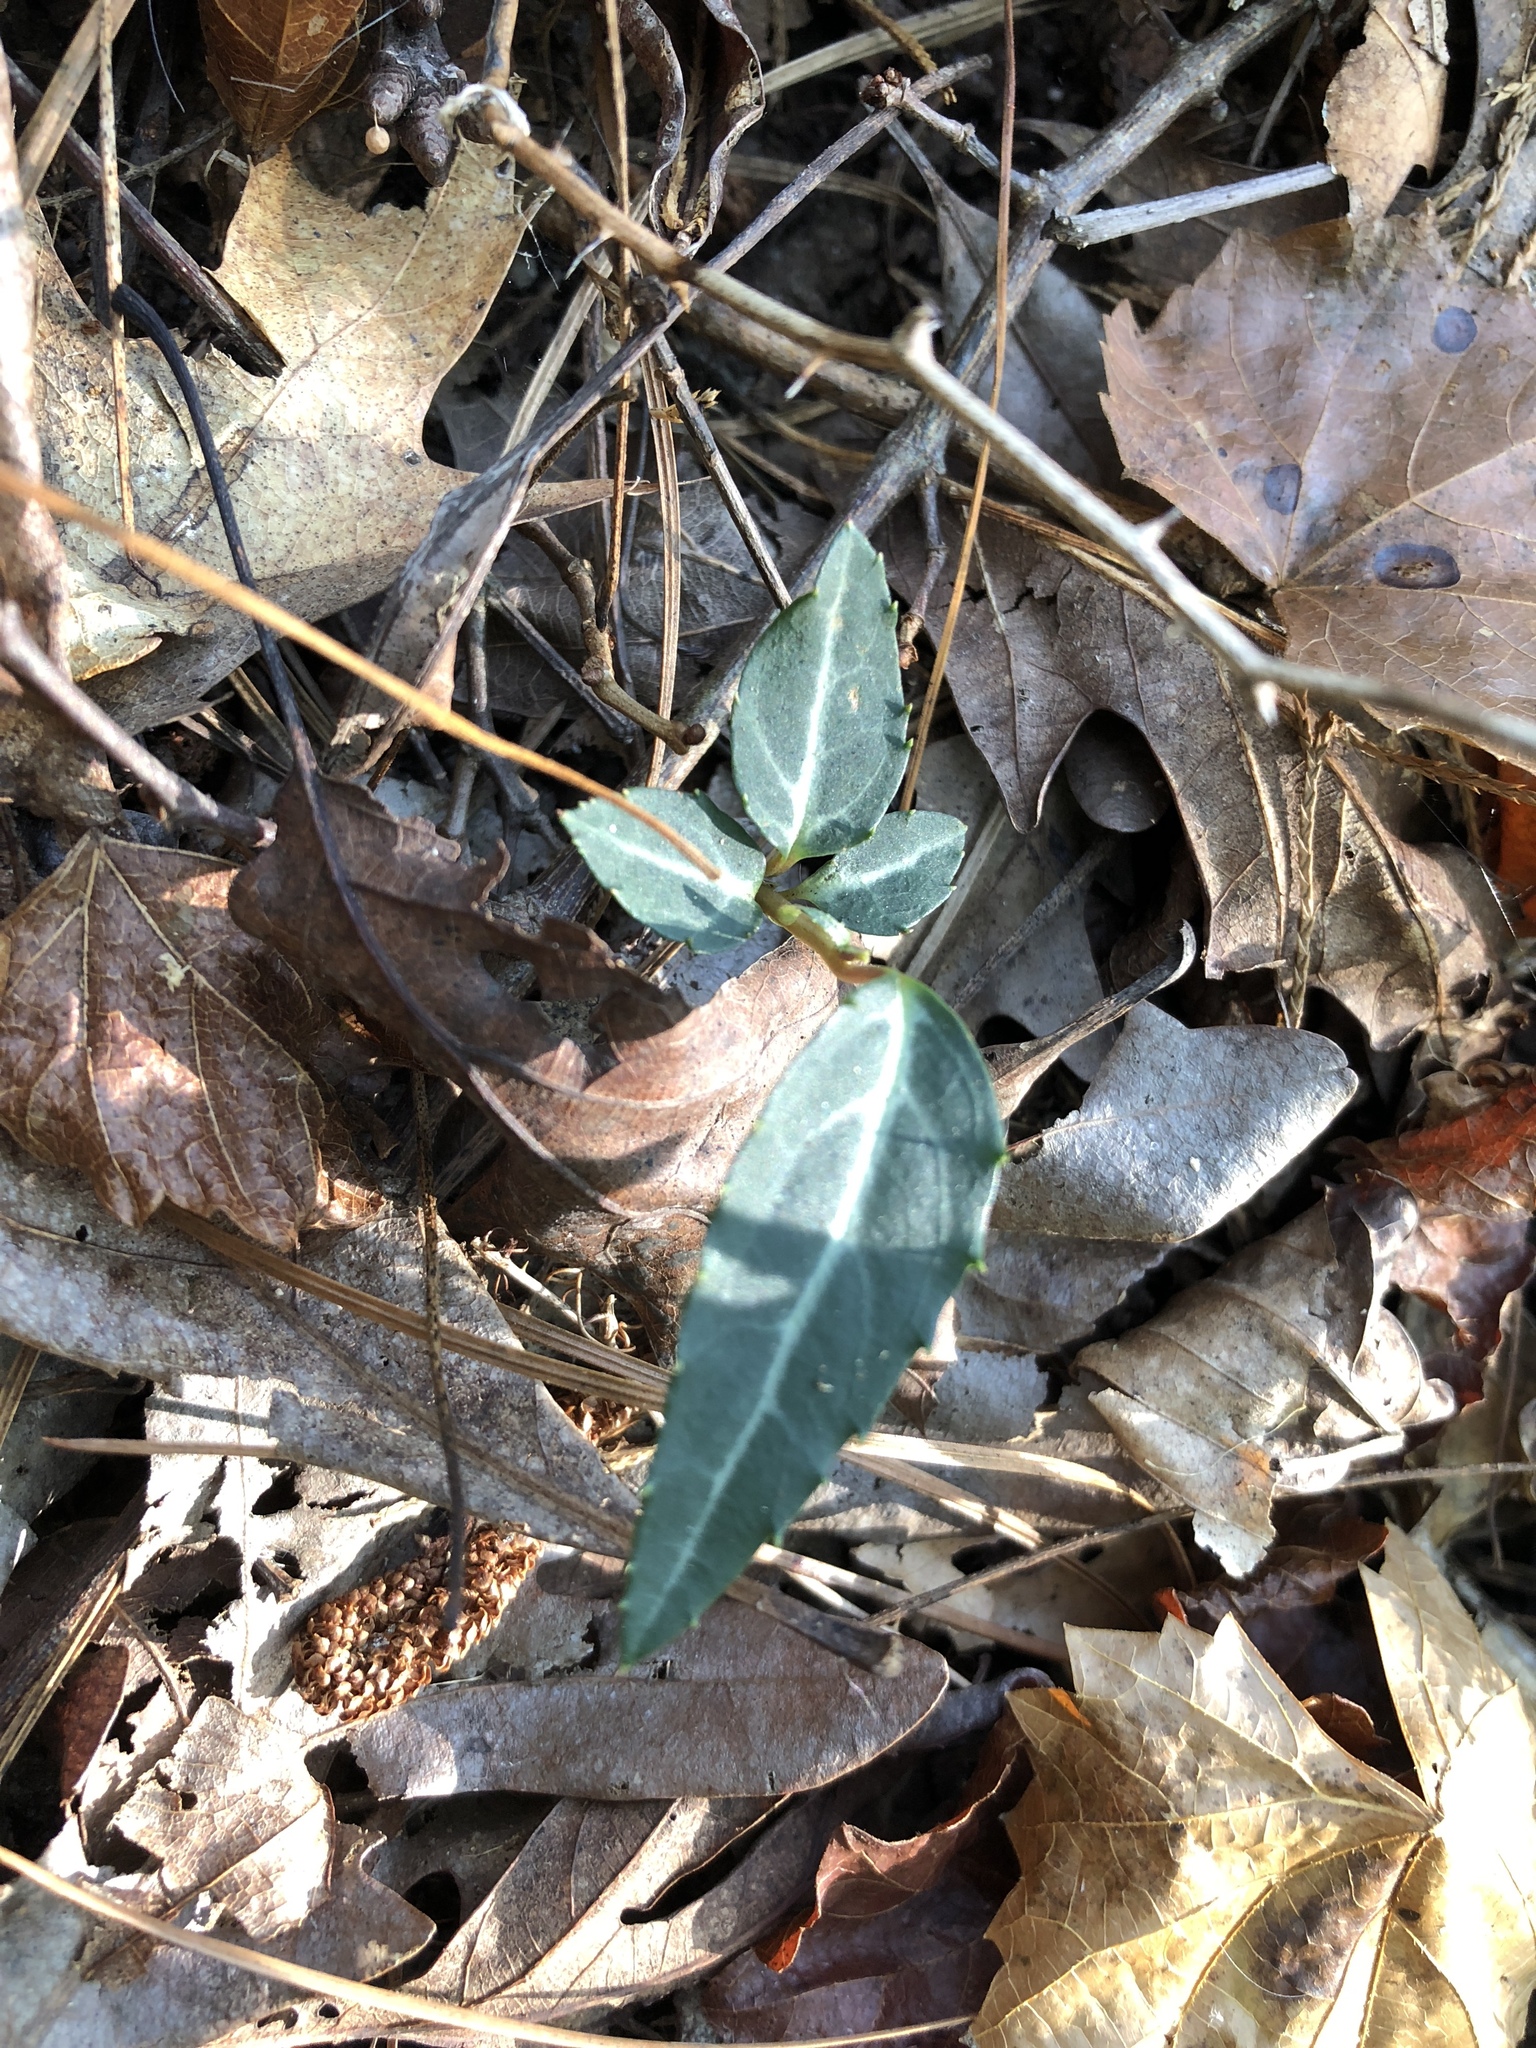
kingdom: Plantae
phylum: Tracheophyta
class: Magnoliopsida
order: Ericales
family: Ericaceae
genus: Chimaphila
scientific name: Chimaphila maculata
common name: Spotted pipsissewa
